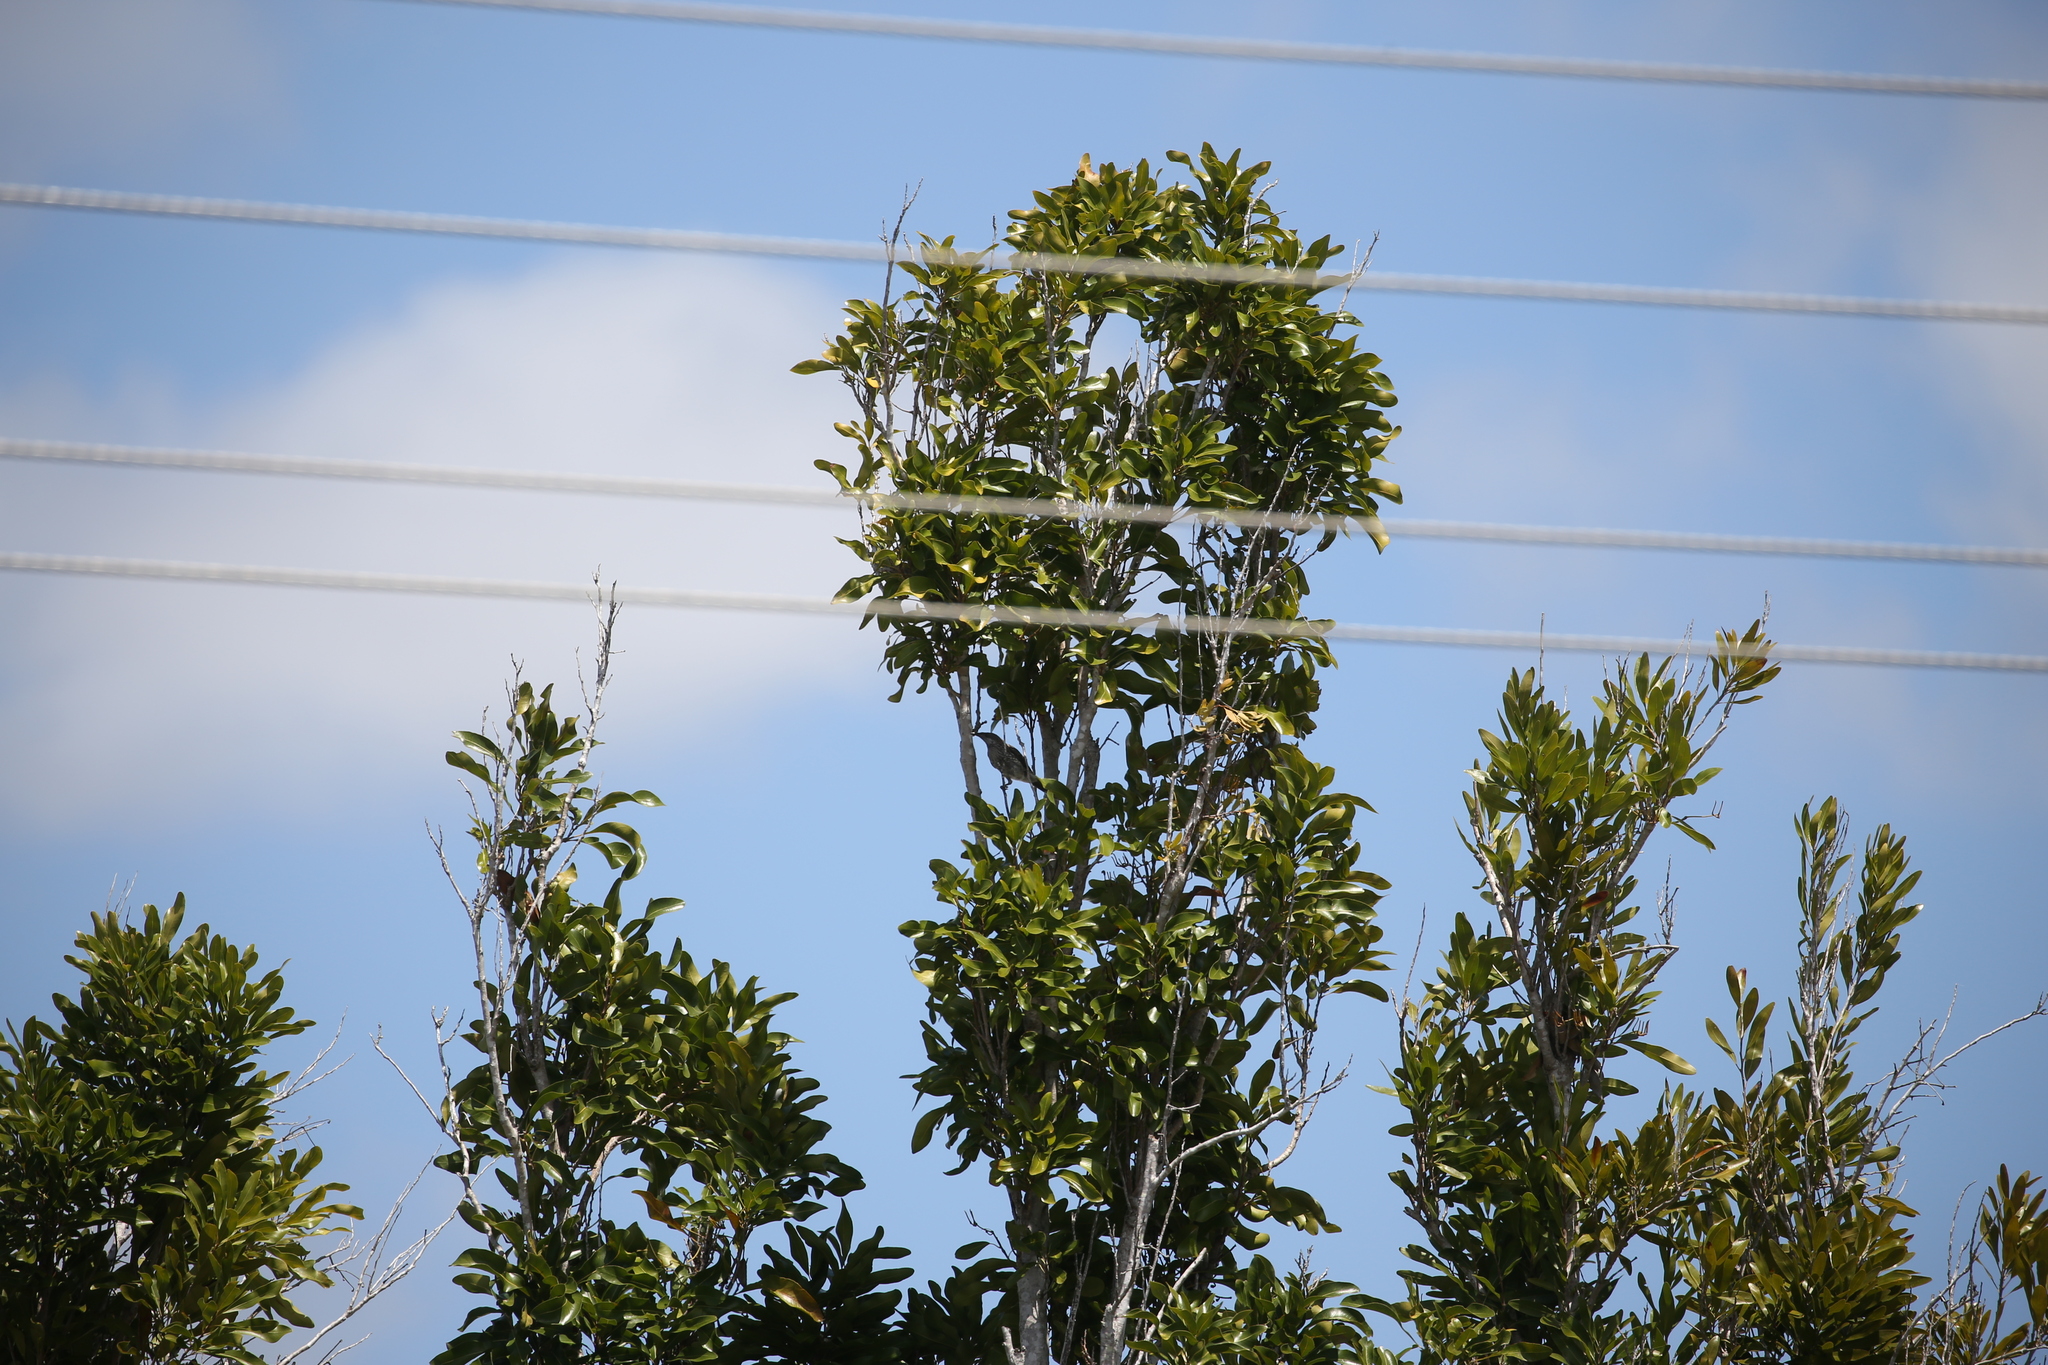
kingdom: Animalia
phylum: Chordata
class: Aves
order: Passeriformes
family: Meliphagidae
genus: Anthochaera
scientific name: Anthochaera chrysoptera
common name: Little wattlebird
